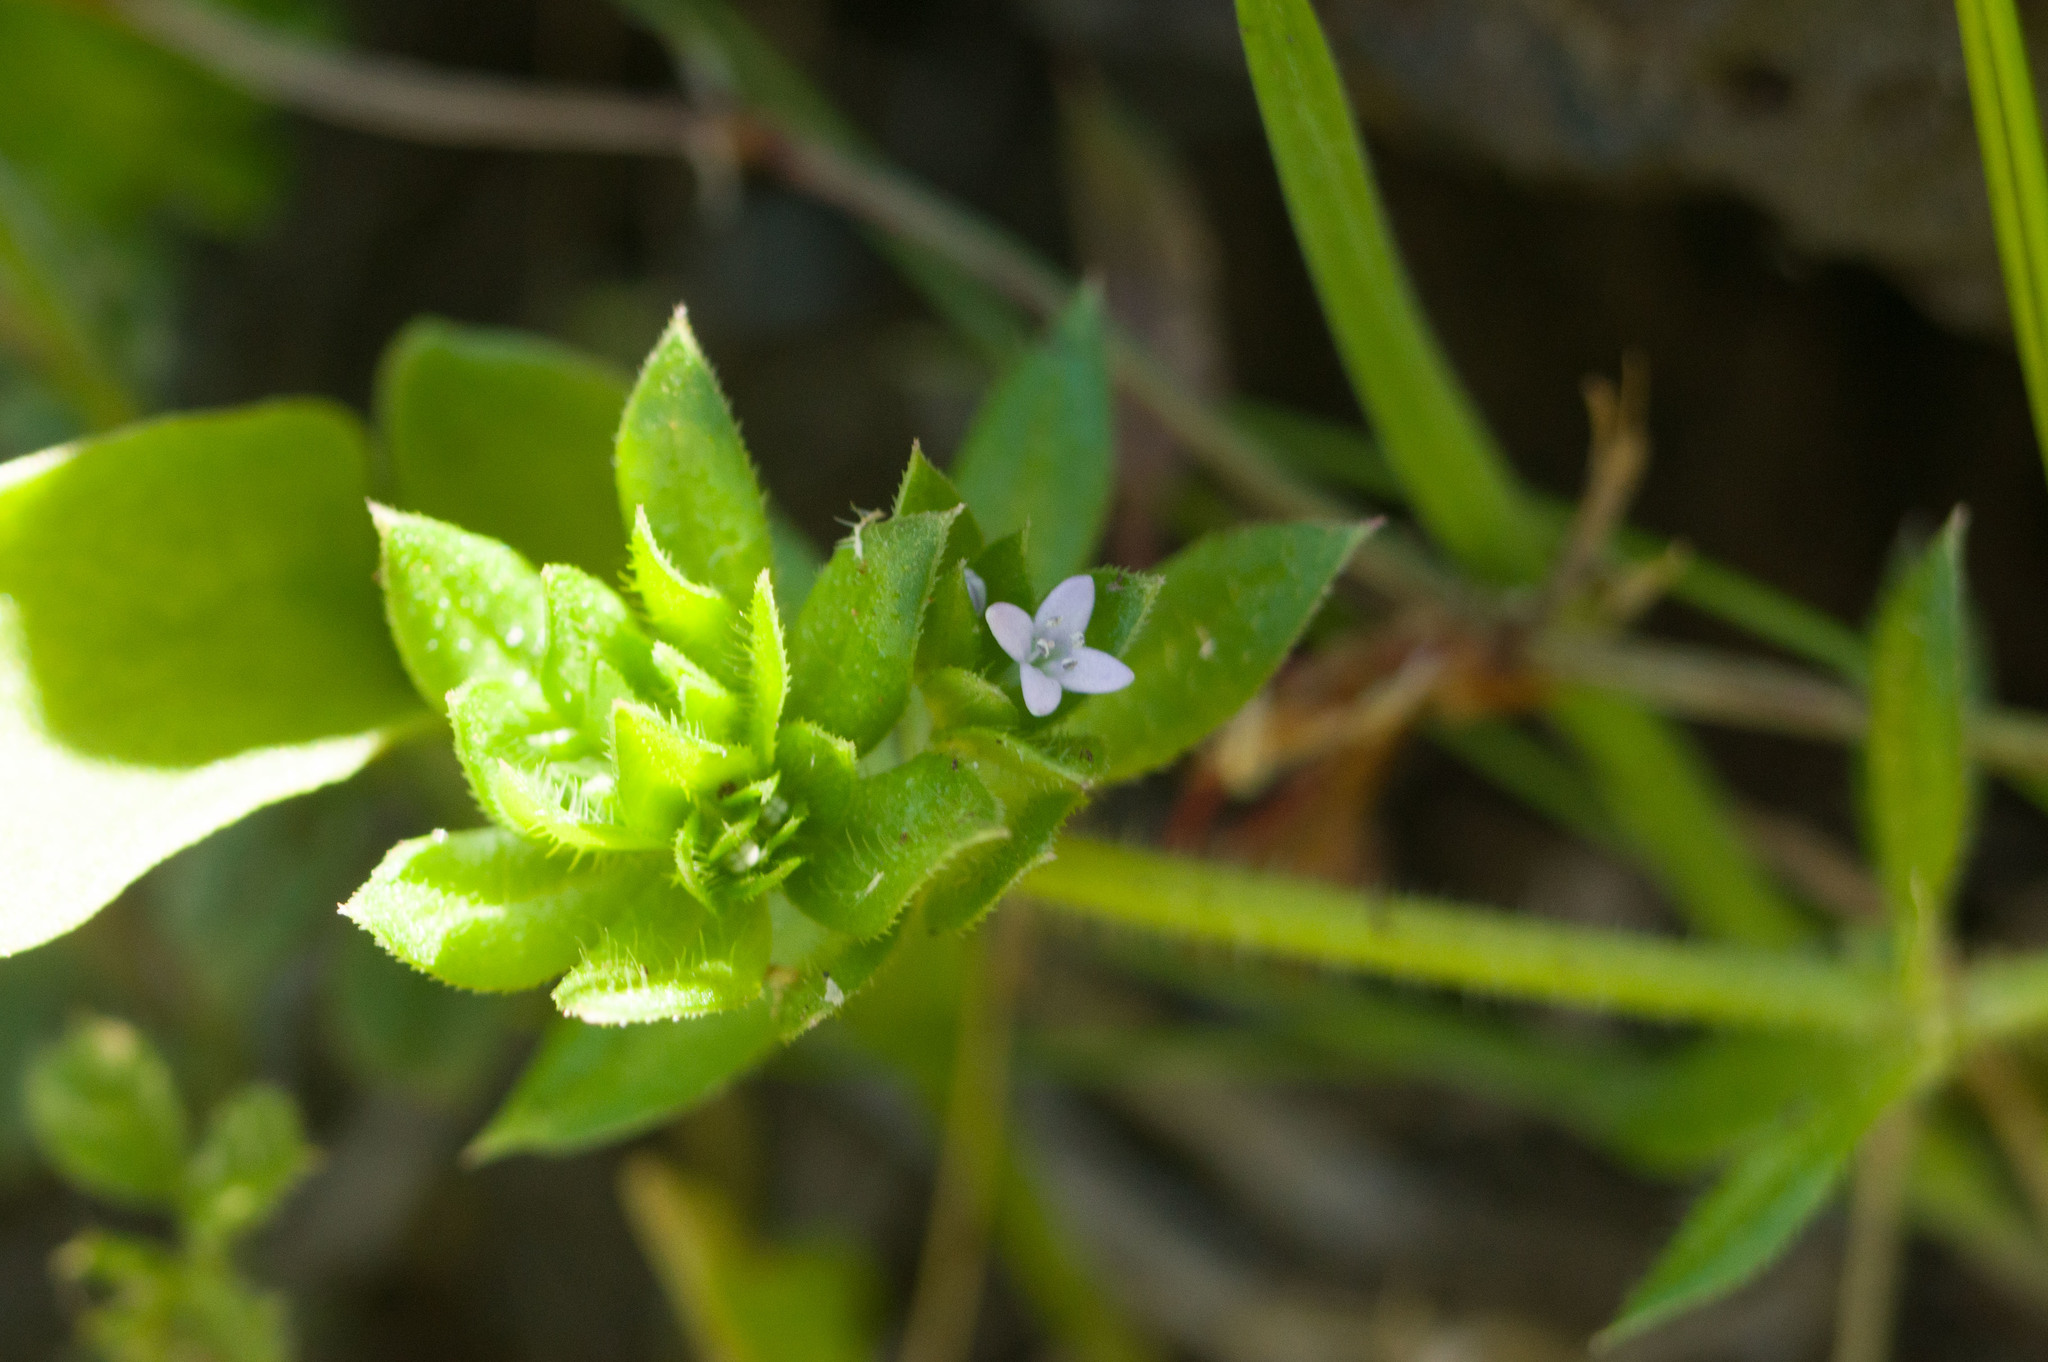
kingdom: Plantae
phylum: Tracheophyta
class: Magnoliopsida
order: Gentianales
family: Rubiaceae
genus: Sherardia
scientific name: Sherardia arvensis
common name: Field madder
